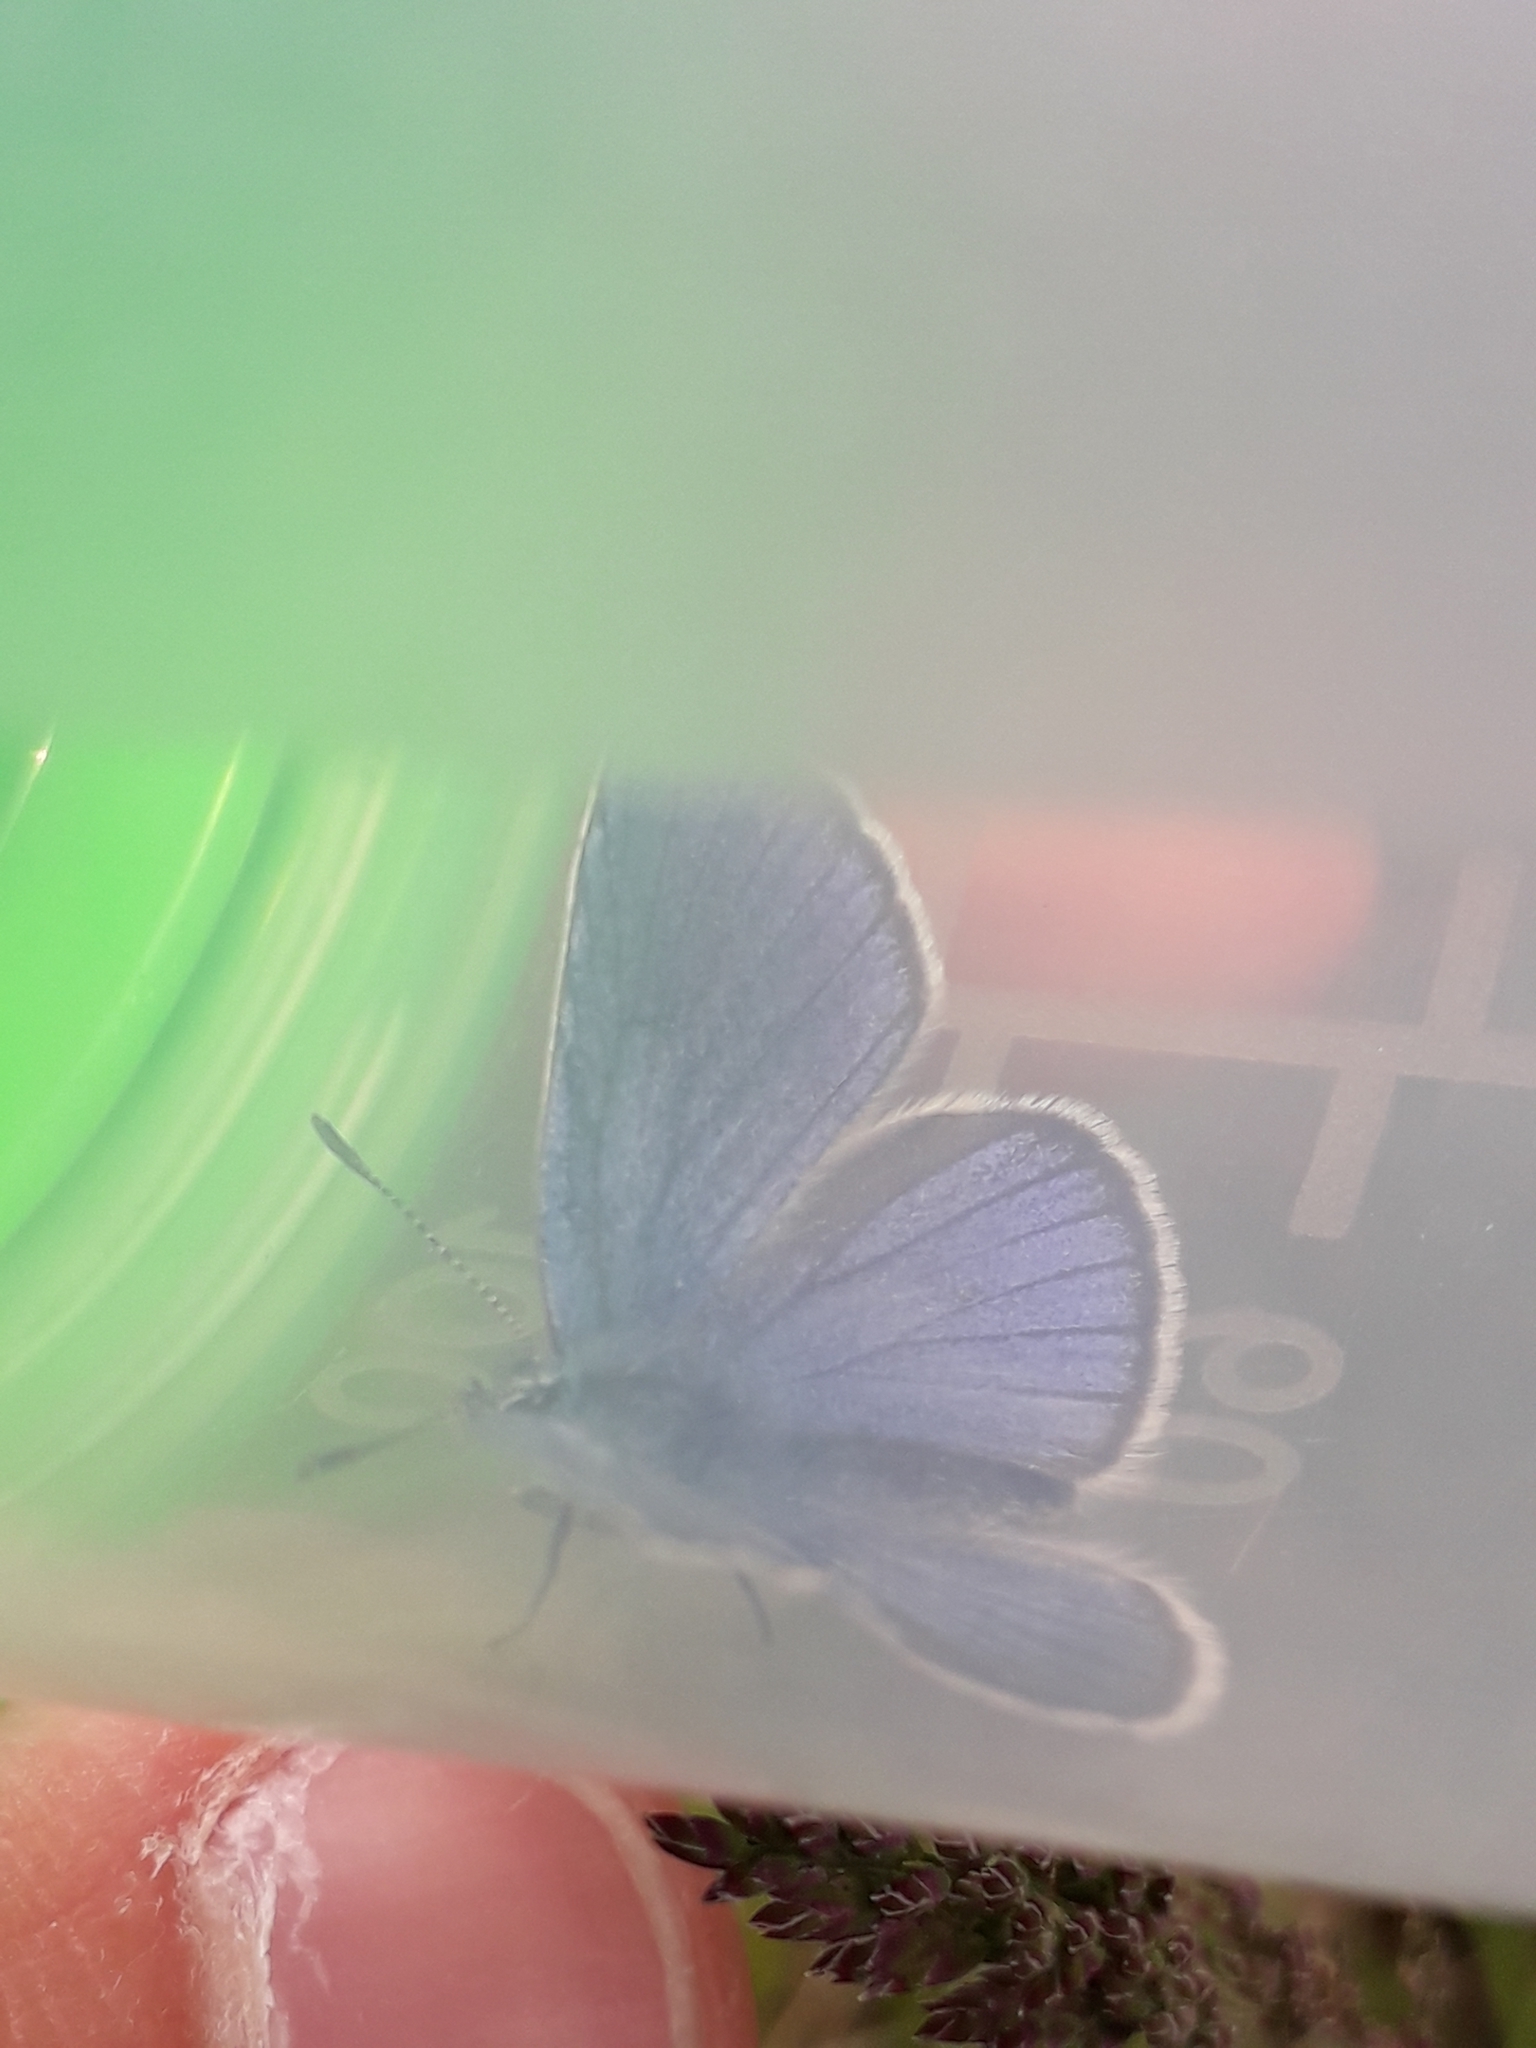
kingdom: Animalia
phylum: Arthropoda
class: Insecta
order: Lepidoptera
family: Lycaenidae
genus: Cyaniris
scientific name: Cyaniris semiargus
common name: Mazarine blue
